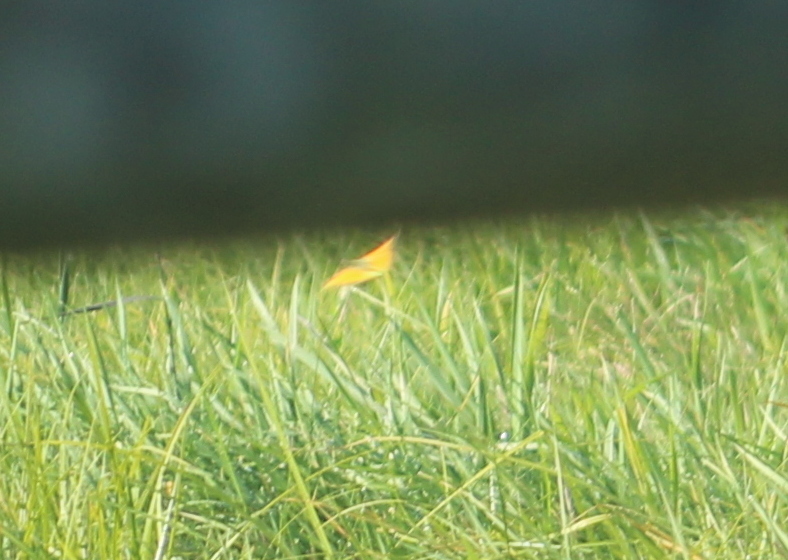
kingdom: Animalia
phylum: Arthropoda
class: Insecta
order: Lepidoptera
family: Pieridae
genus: Colias
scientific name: Colias eurytheme
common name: Alfalfa butterfly
